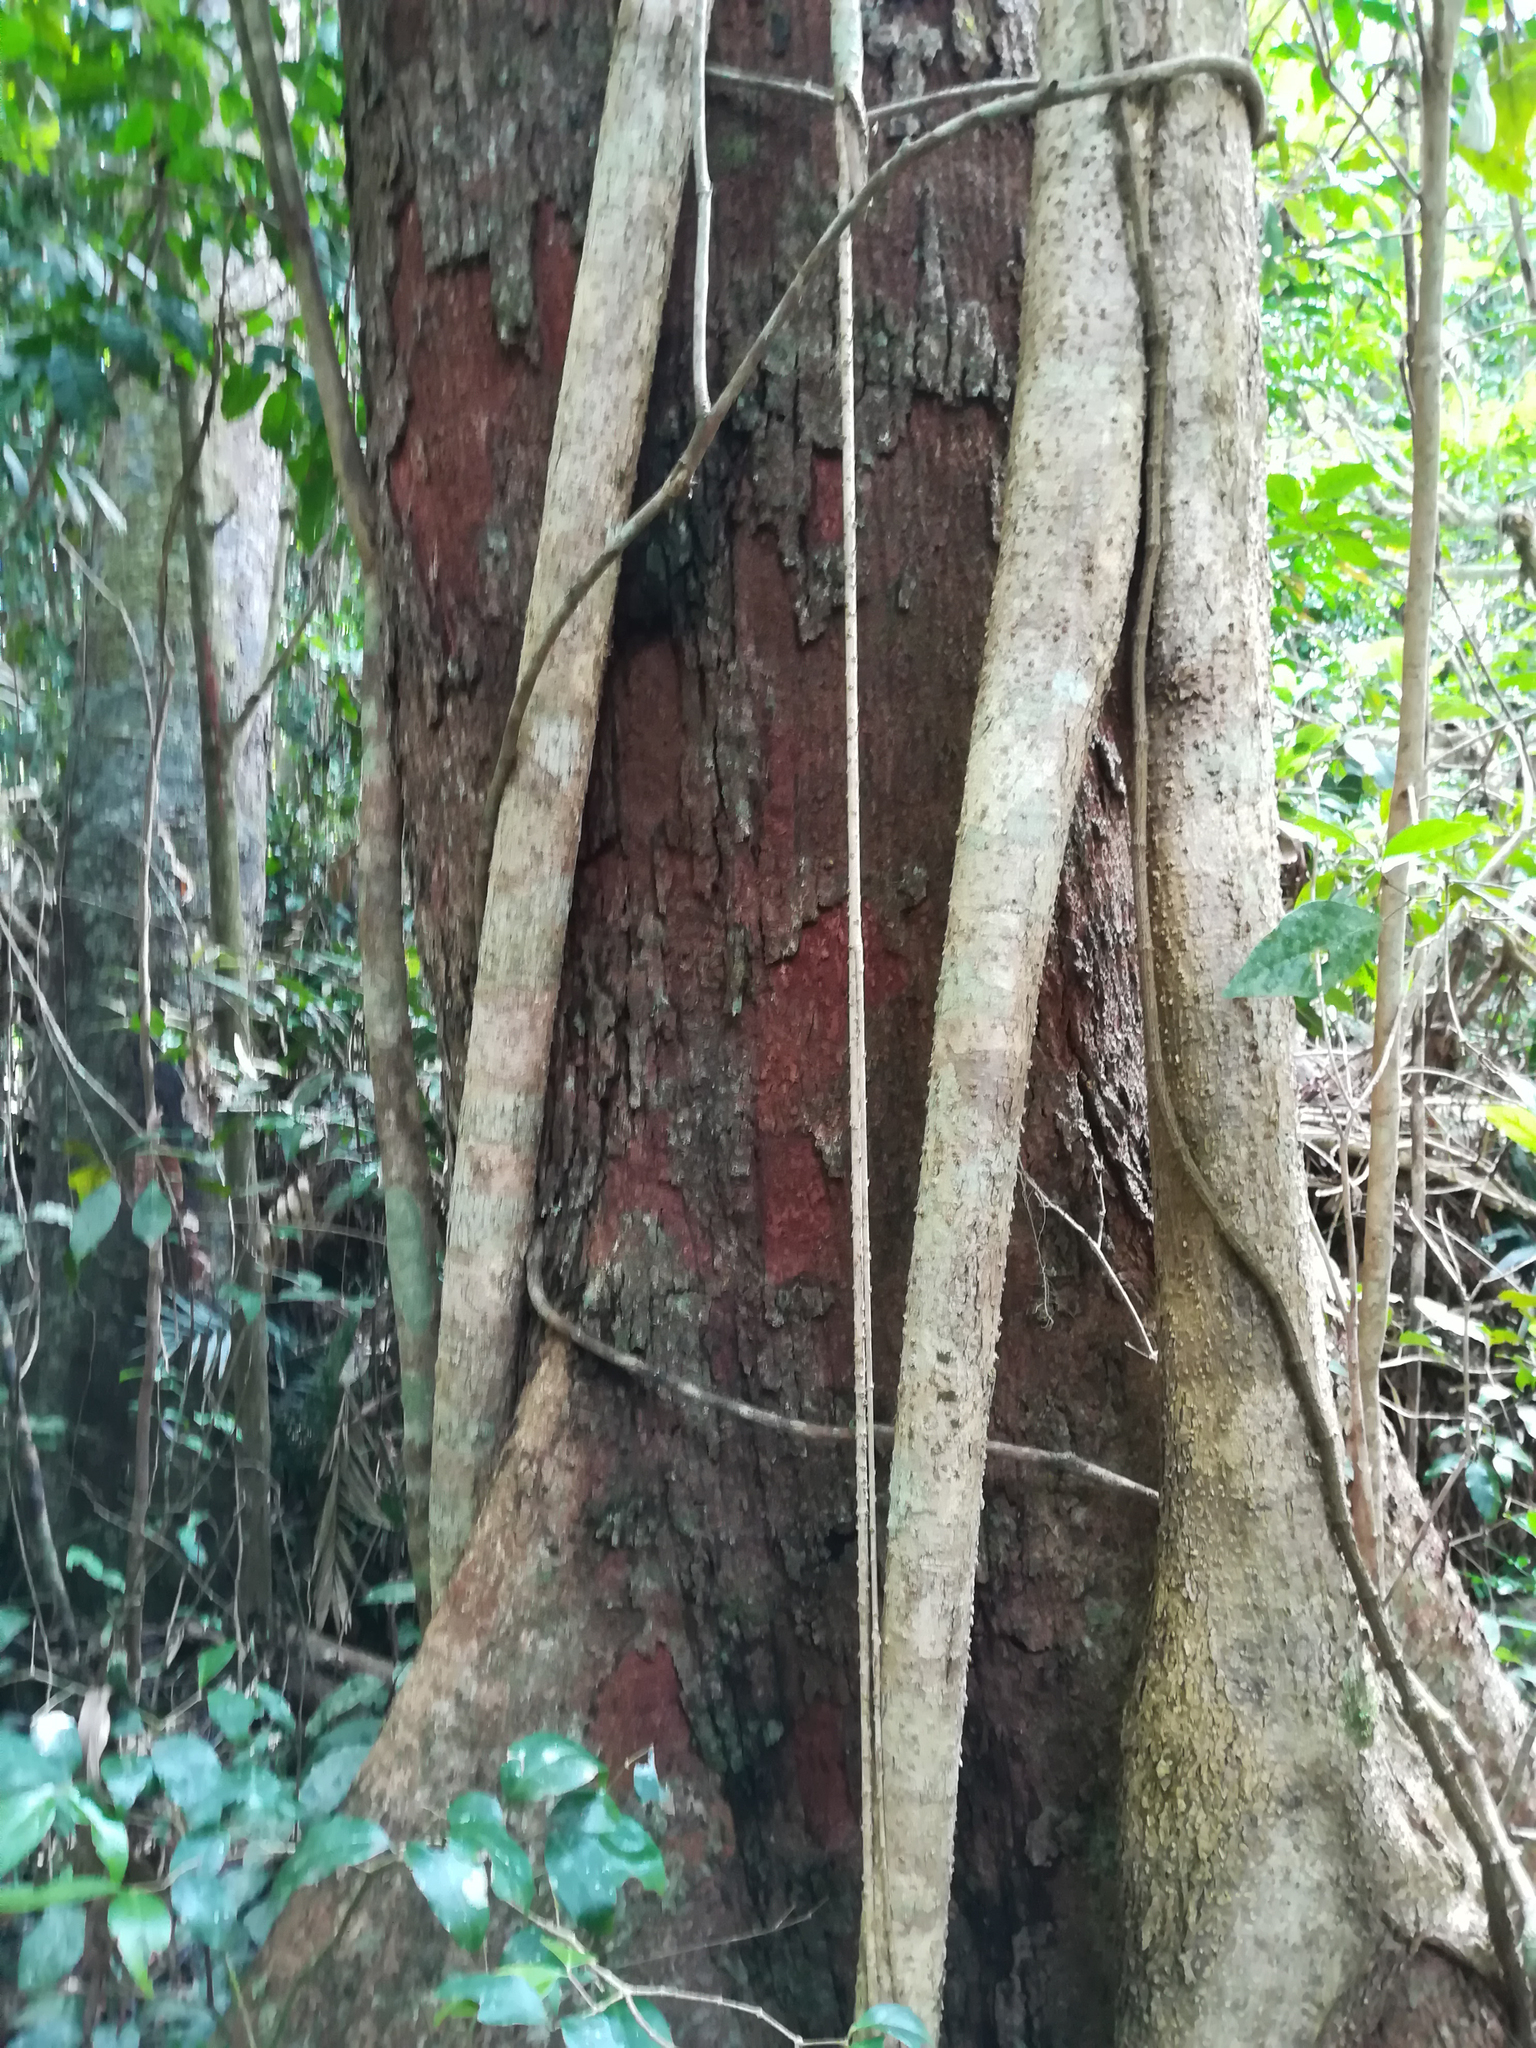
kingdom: Plantae
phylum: Tracheophyta
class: Magnoliopsida
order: Malvales
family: Malvaceae
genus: Argyrodendron
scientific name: Argyrodendron peralatum
